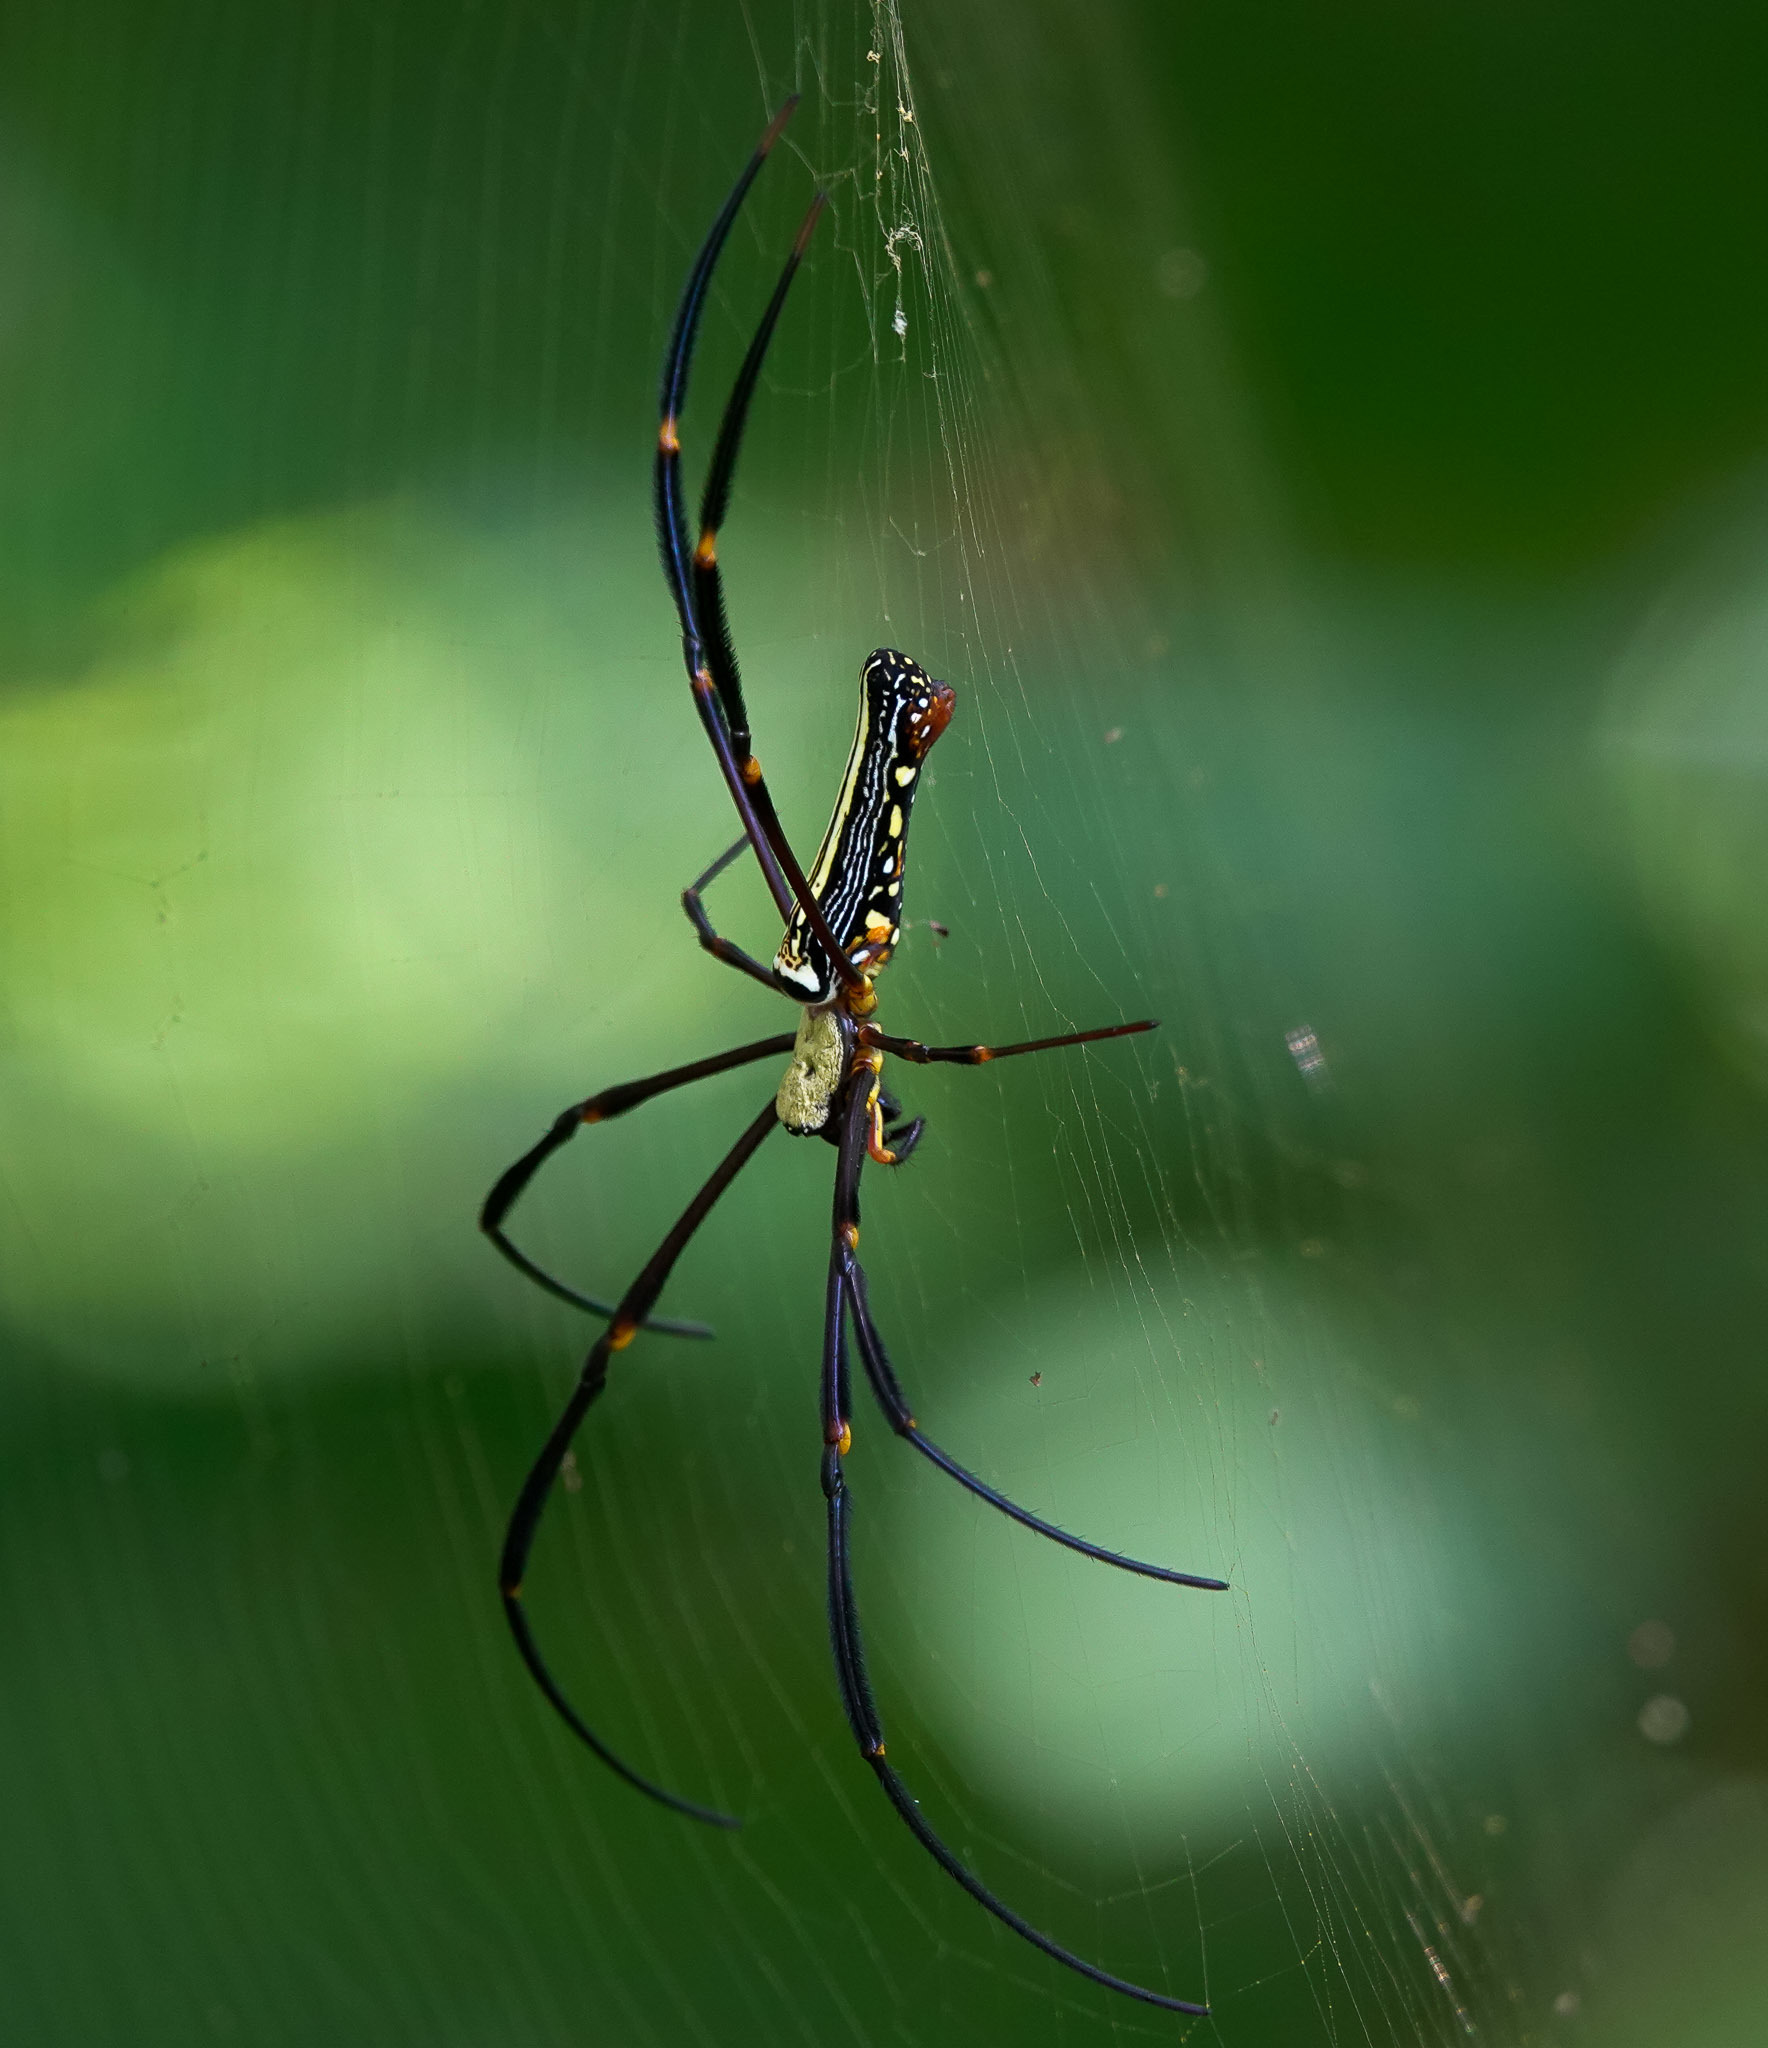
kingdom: Animalia
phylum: Arthropoda
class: Arachnida
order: Araneae
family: Araneidae
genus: Nephila
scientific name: Nephila pilipes
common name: Giant golden orb weaver
